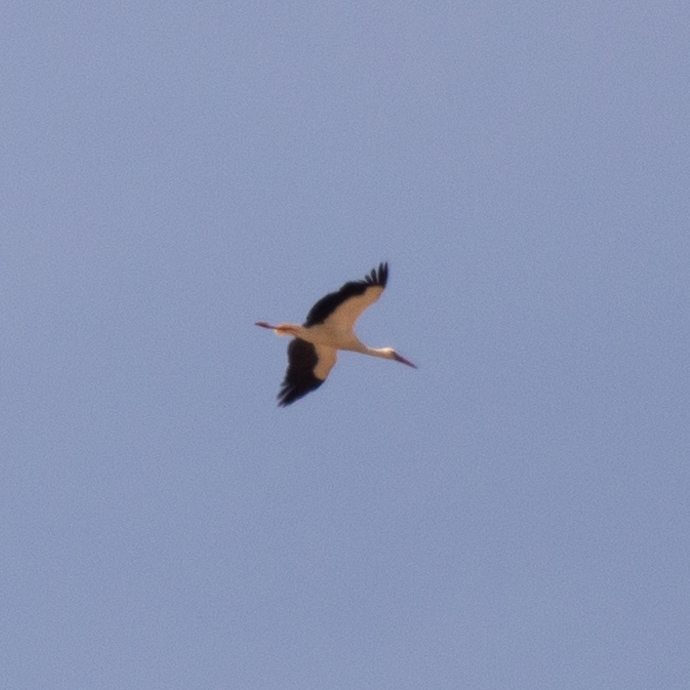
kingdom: Animalia
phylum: Chordata
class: Aves
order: Ciconiiformes
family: Ciconiidae
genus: Ciconia
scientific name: Ciconia ciconia
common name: White stork
